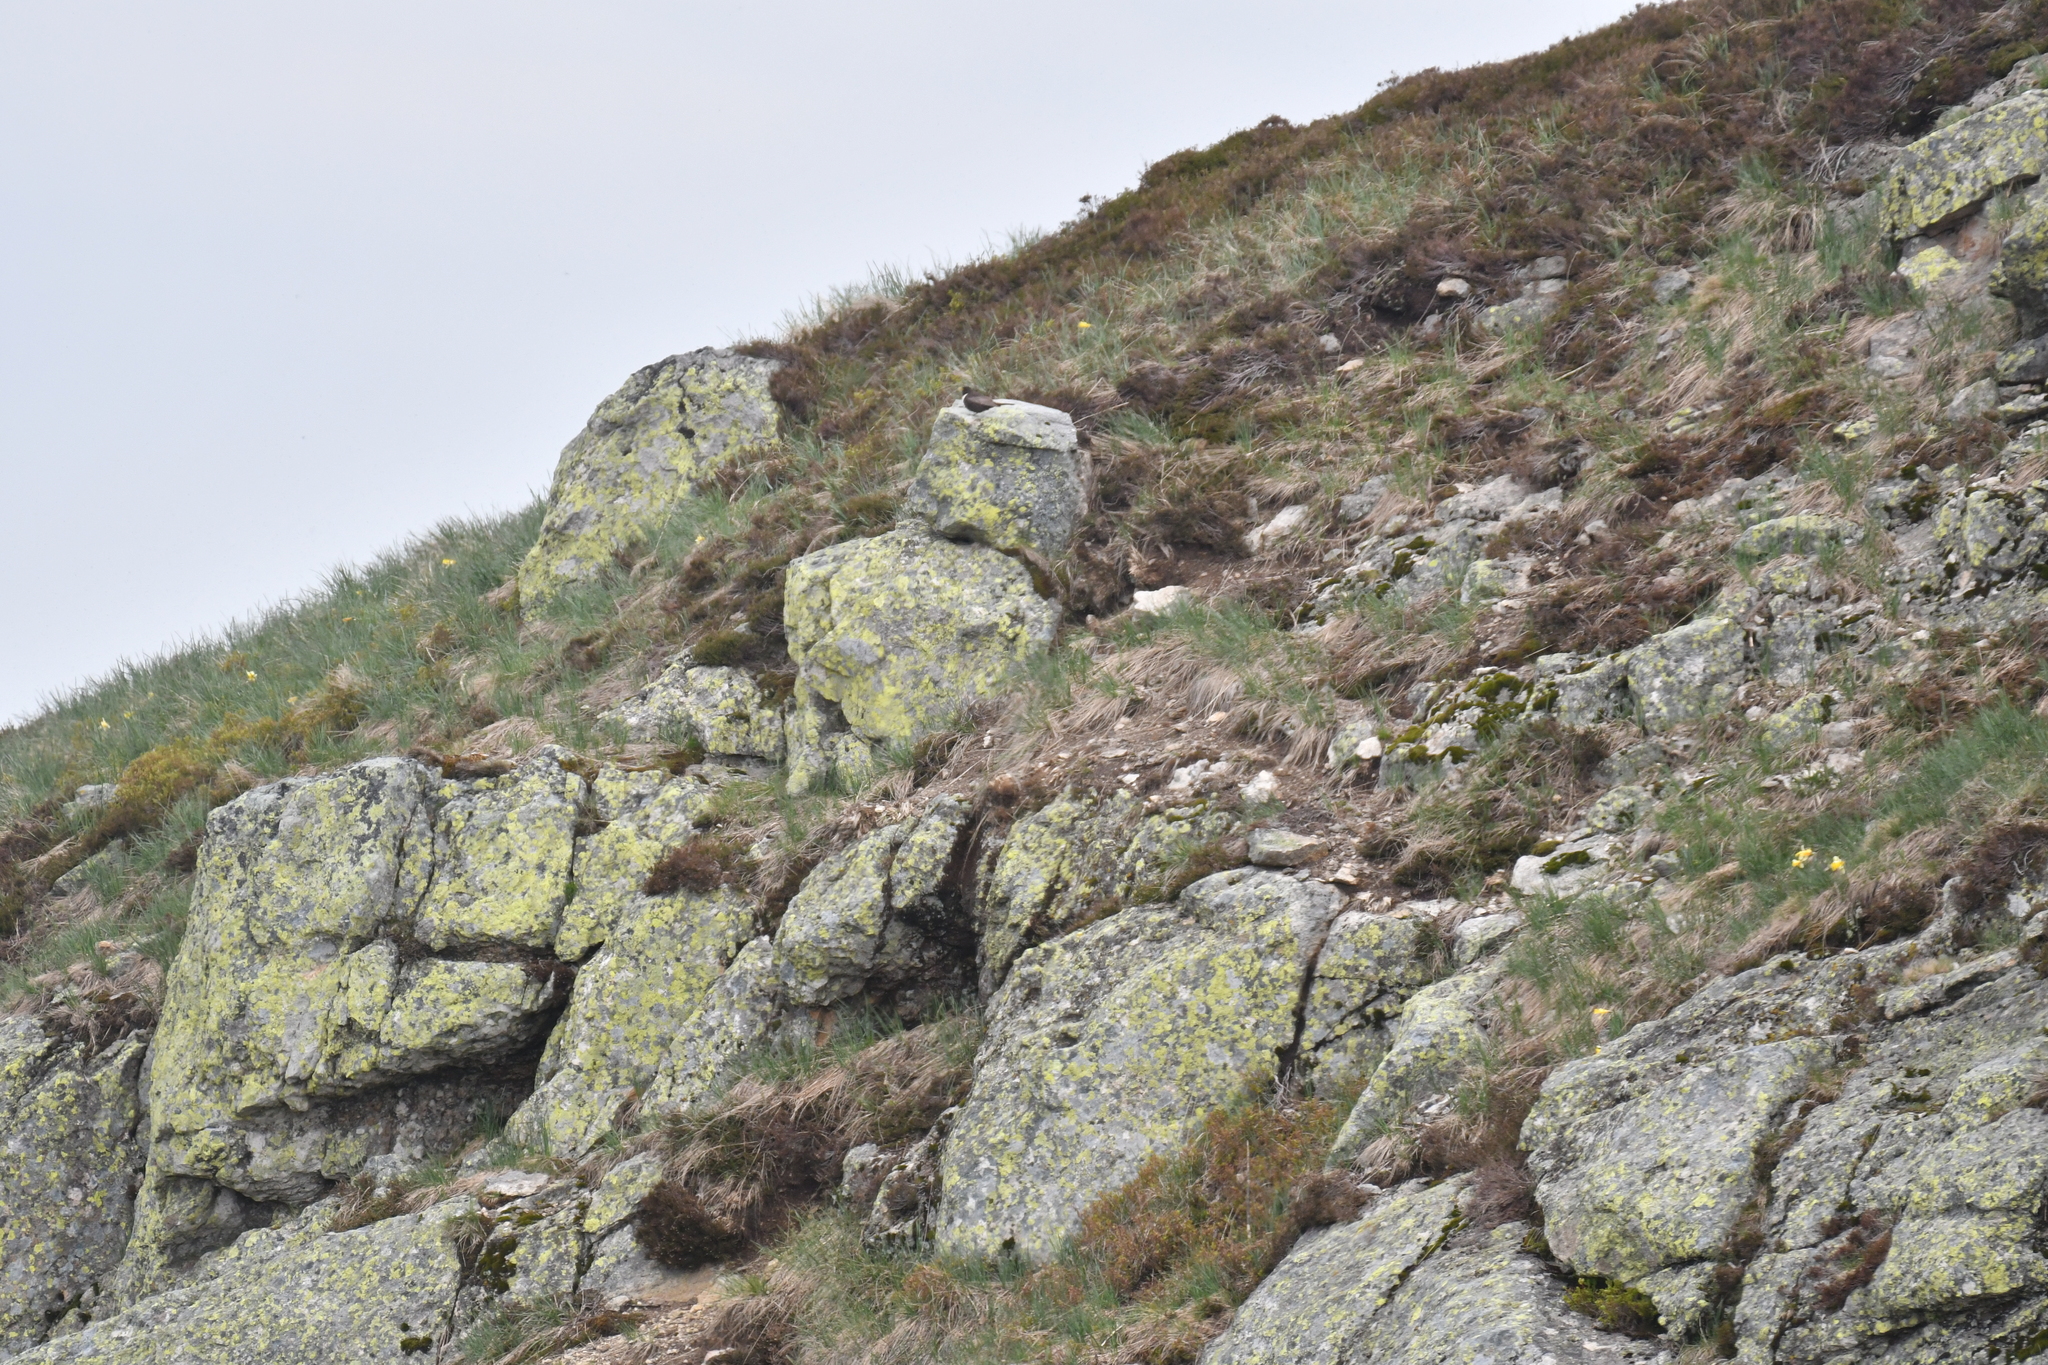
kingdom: Animalia
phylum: Chordata
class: Aves
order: Passeriformes
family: Turdidae
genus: Turdus
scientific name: Turdus torquatus
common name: Ring ouzel
